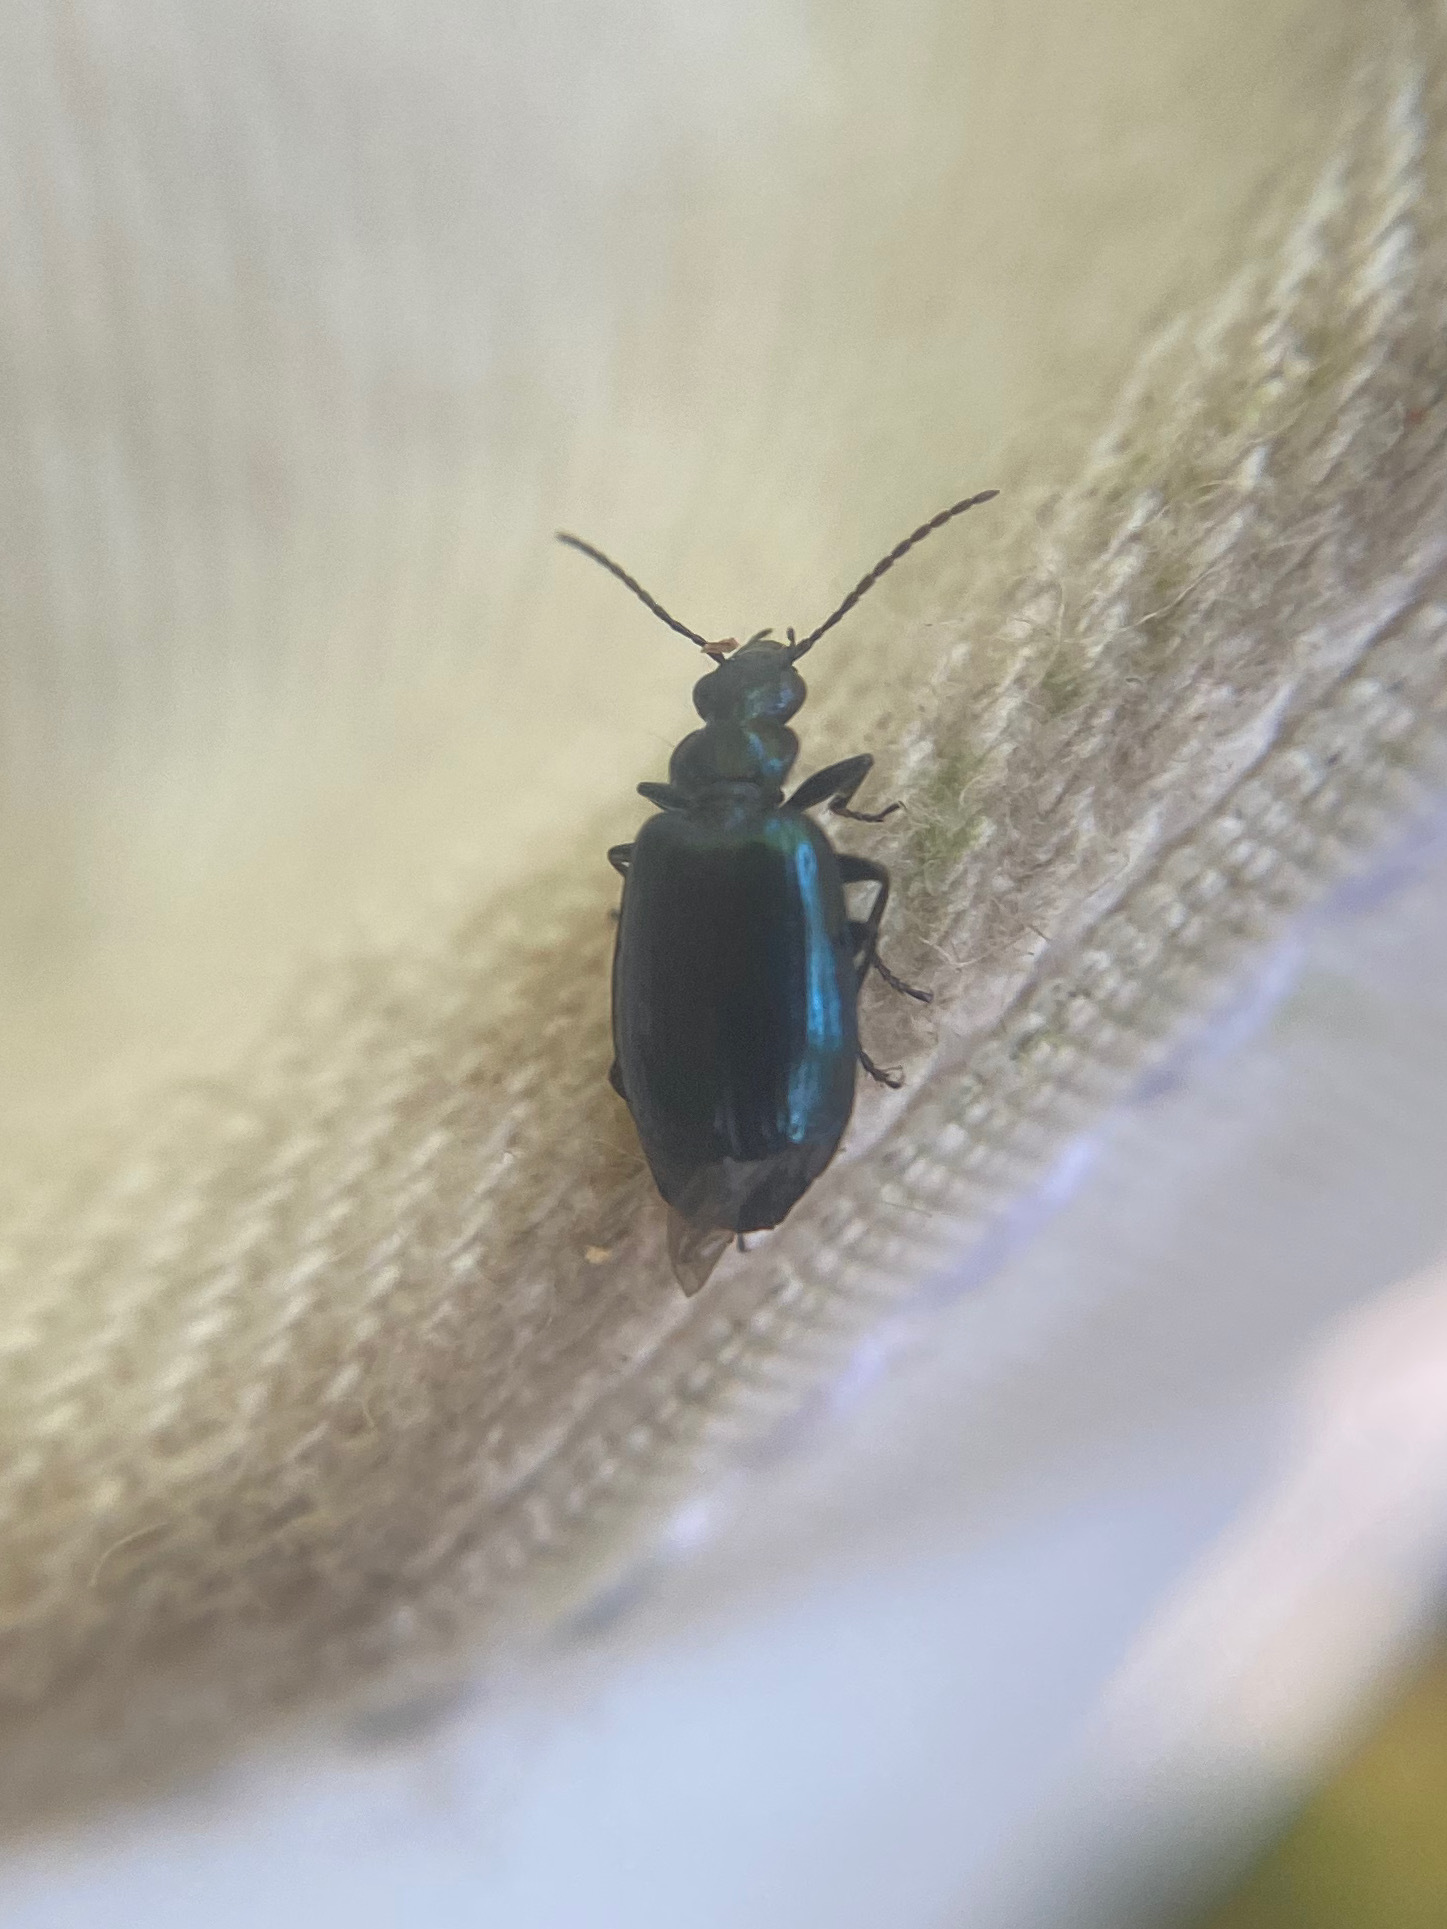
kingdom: Animalia
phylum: Arthropoda
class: Insecta
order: Coleoptera
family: Carabidae
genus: Lebia
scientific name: Lebia viridis
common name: Flower lebia beetle
